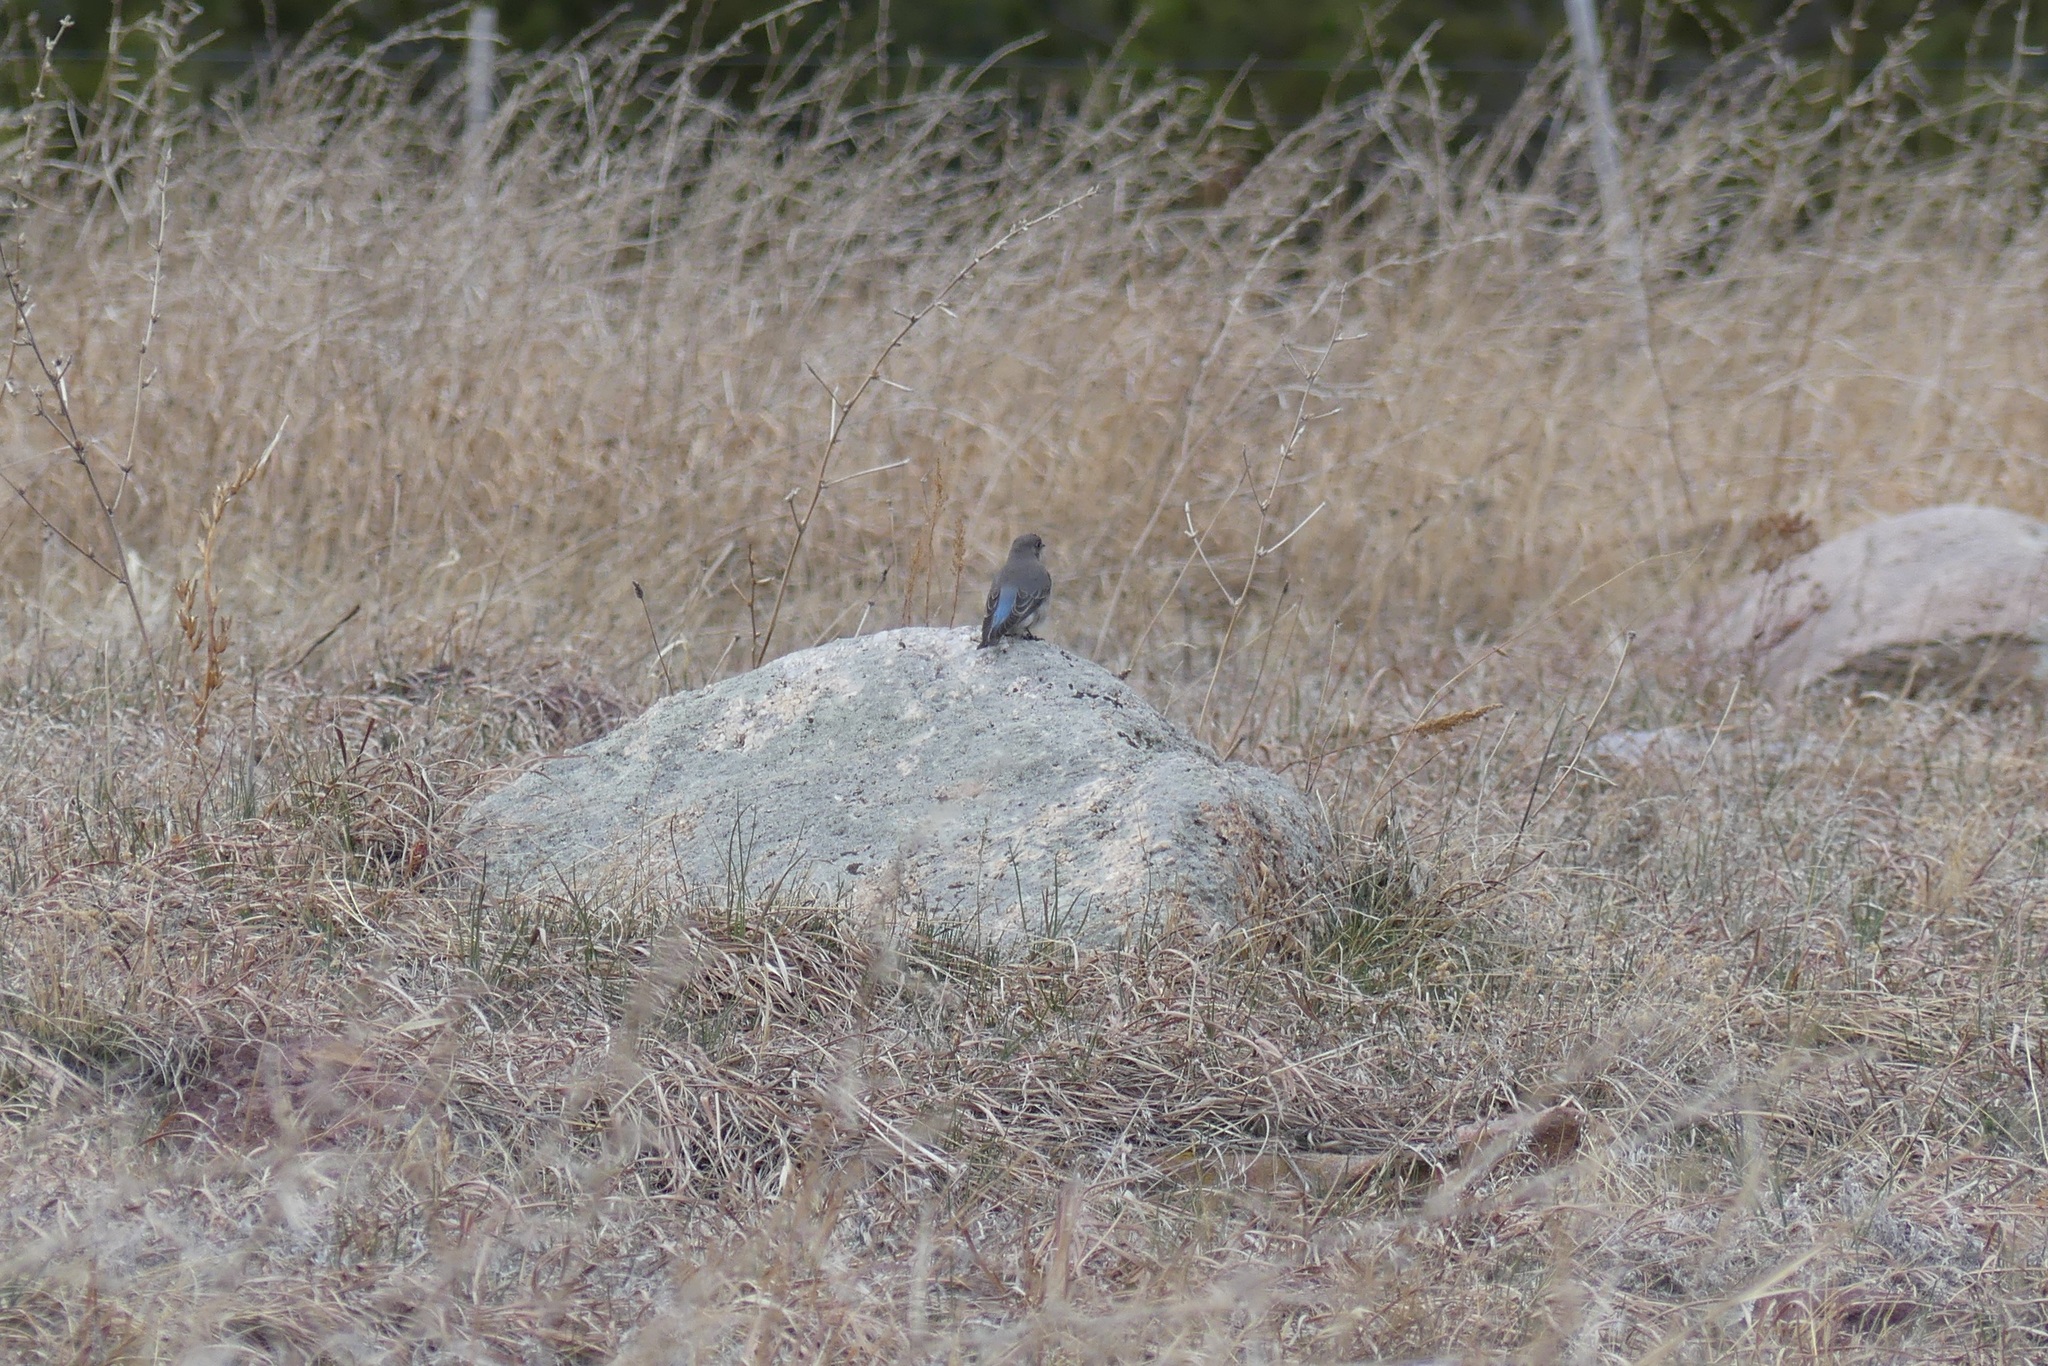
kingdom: Animalia
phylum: Chordata
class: Aves
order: Passeriformes
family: Turdidae
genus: Sialia
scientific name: Sialia mexicana
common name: Western bluebird
